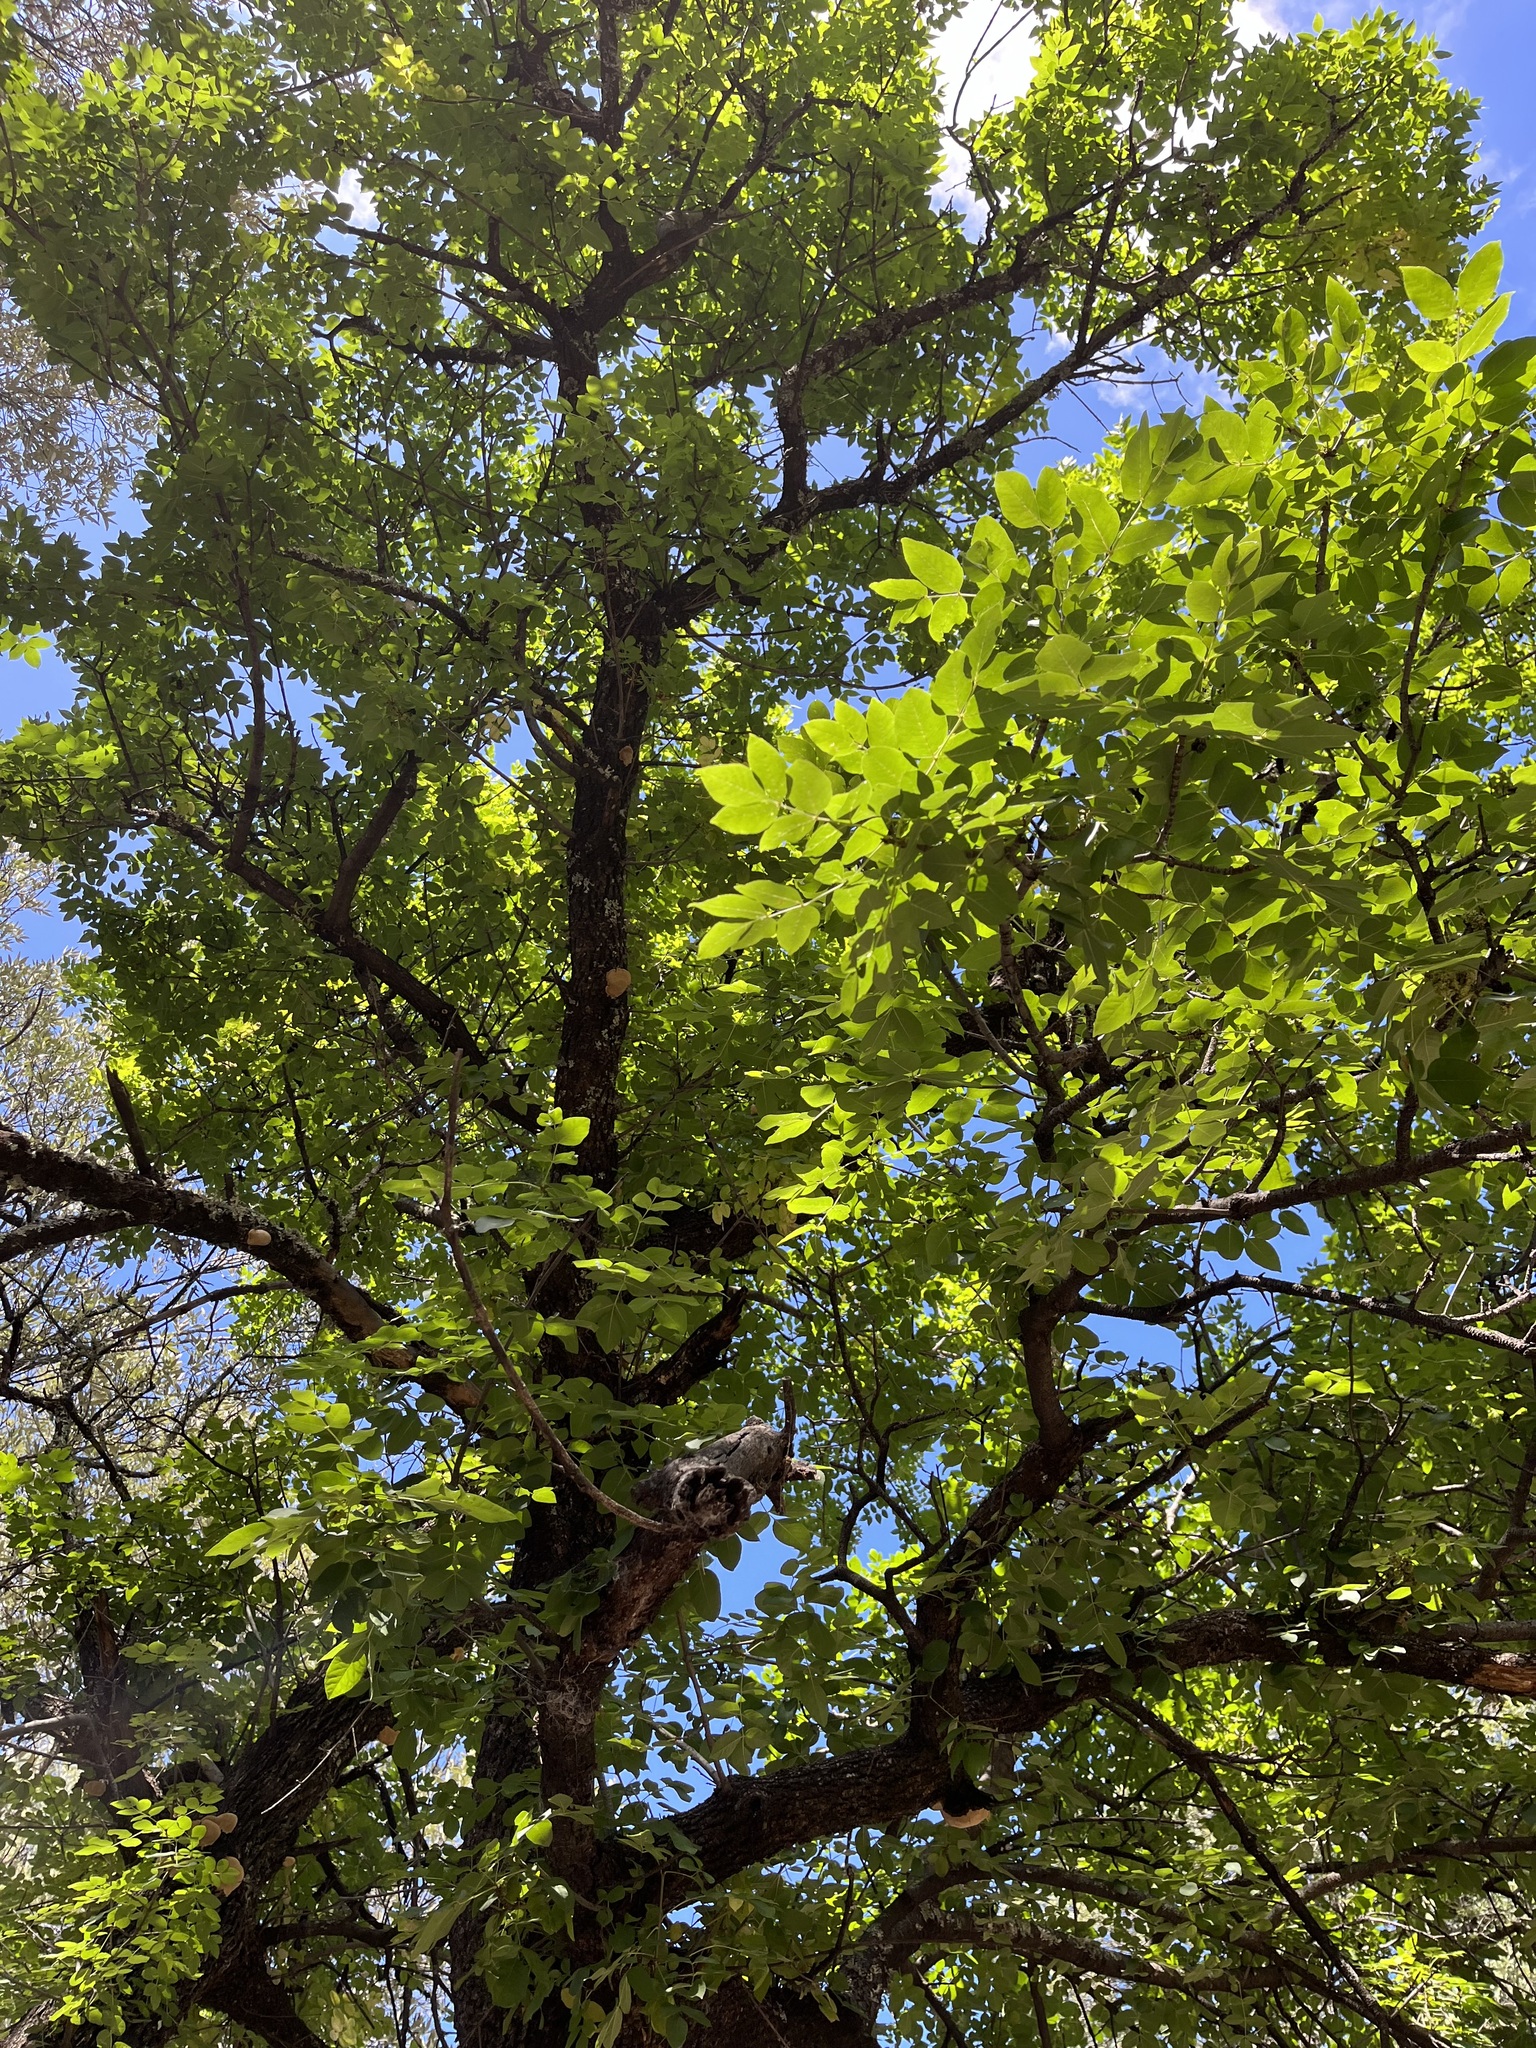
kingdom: Plantae
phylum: Tracheophyta
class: Magnoliopsida
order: Lamiales
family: Oleaceae
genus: Fraxinus
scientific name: Fraxinus velutina
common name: Arizon ash
